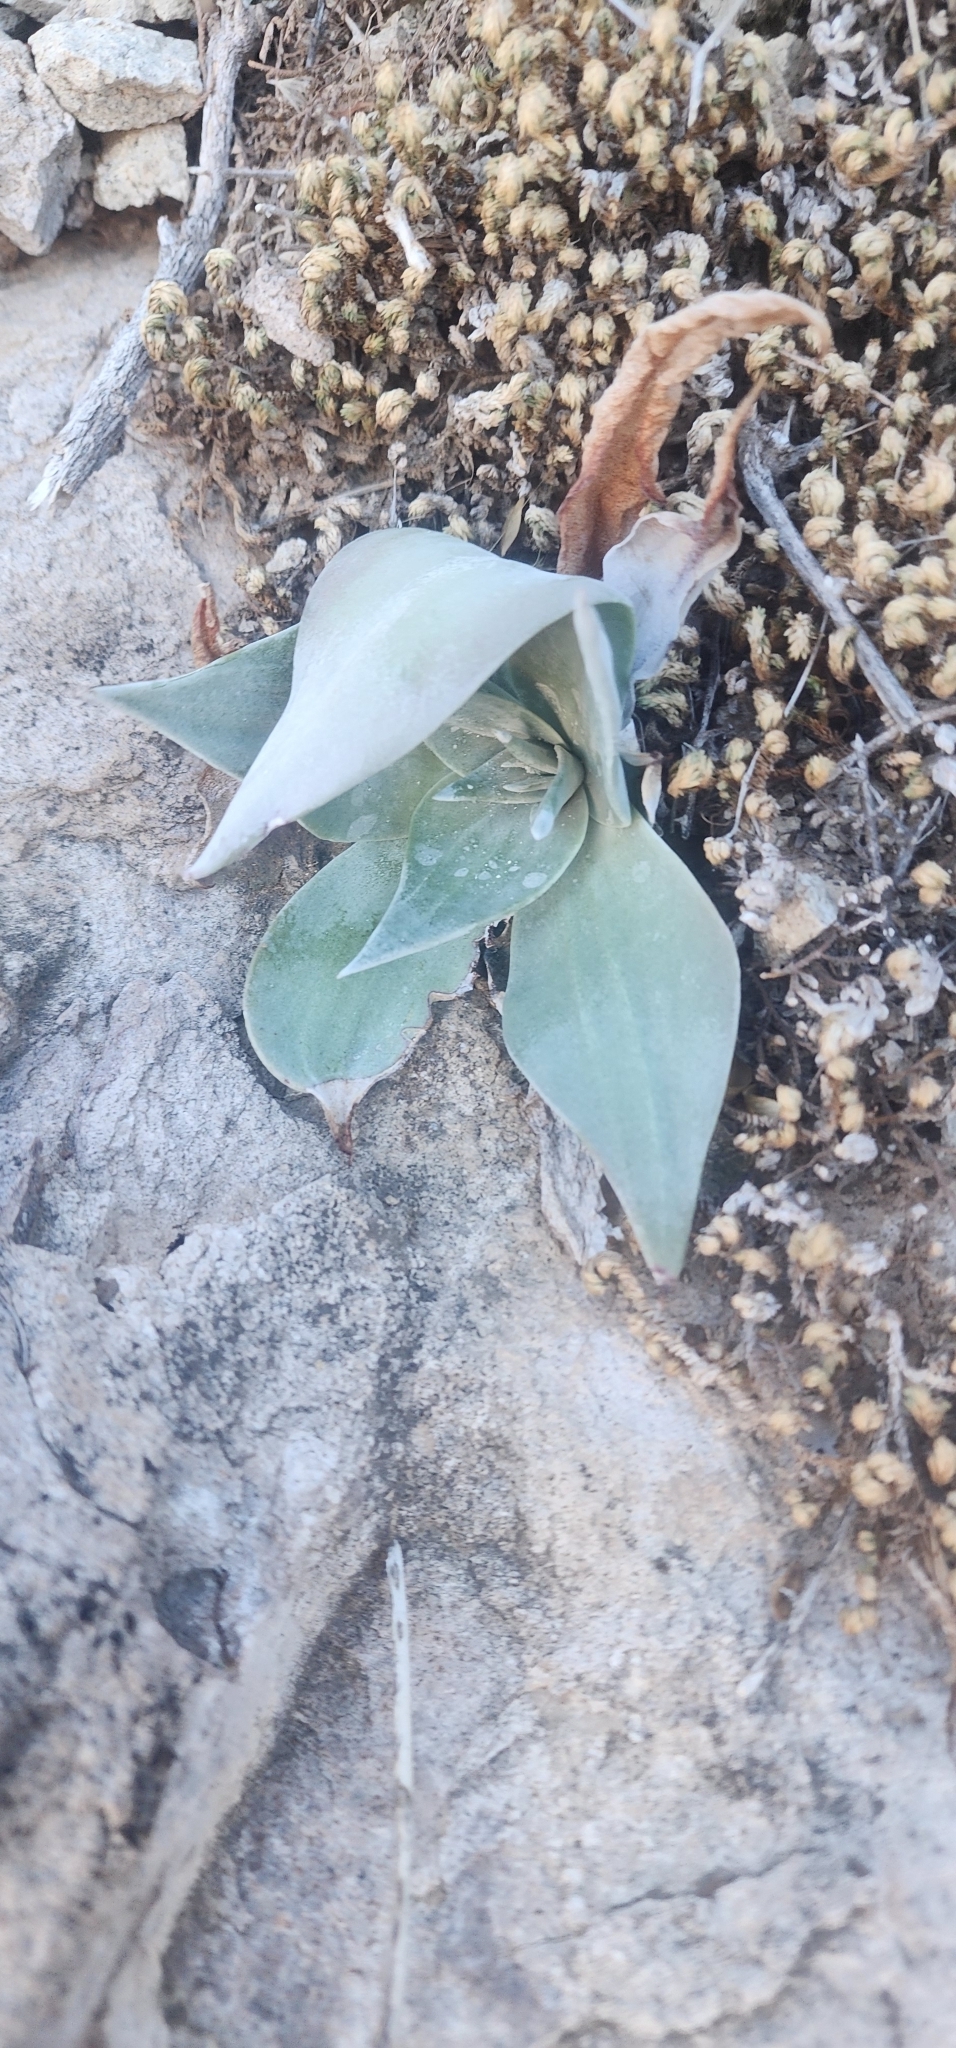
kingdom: Plantae
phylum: Tracheophyta
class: Magnoliopsida
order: Saxifragales
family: Crassulaceae
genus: Dudleya
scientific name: Dudleya arizonica
